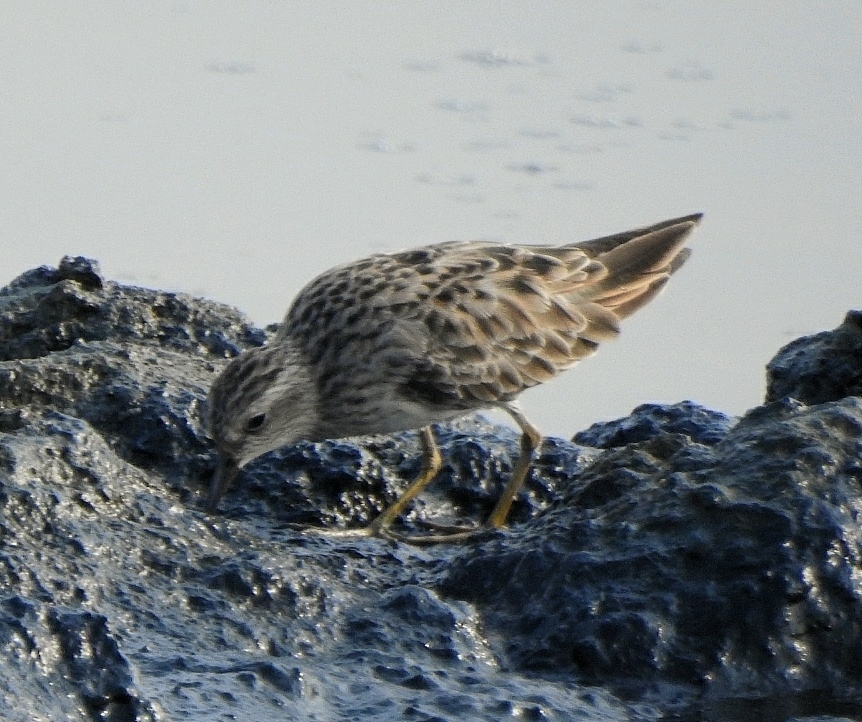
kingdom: Animalia
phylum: Chordata
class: Aves
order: Charadriiformes
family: Scolopacidae
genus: Calidris
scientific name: Calidris subminuta
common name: Long-toed stint
